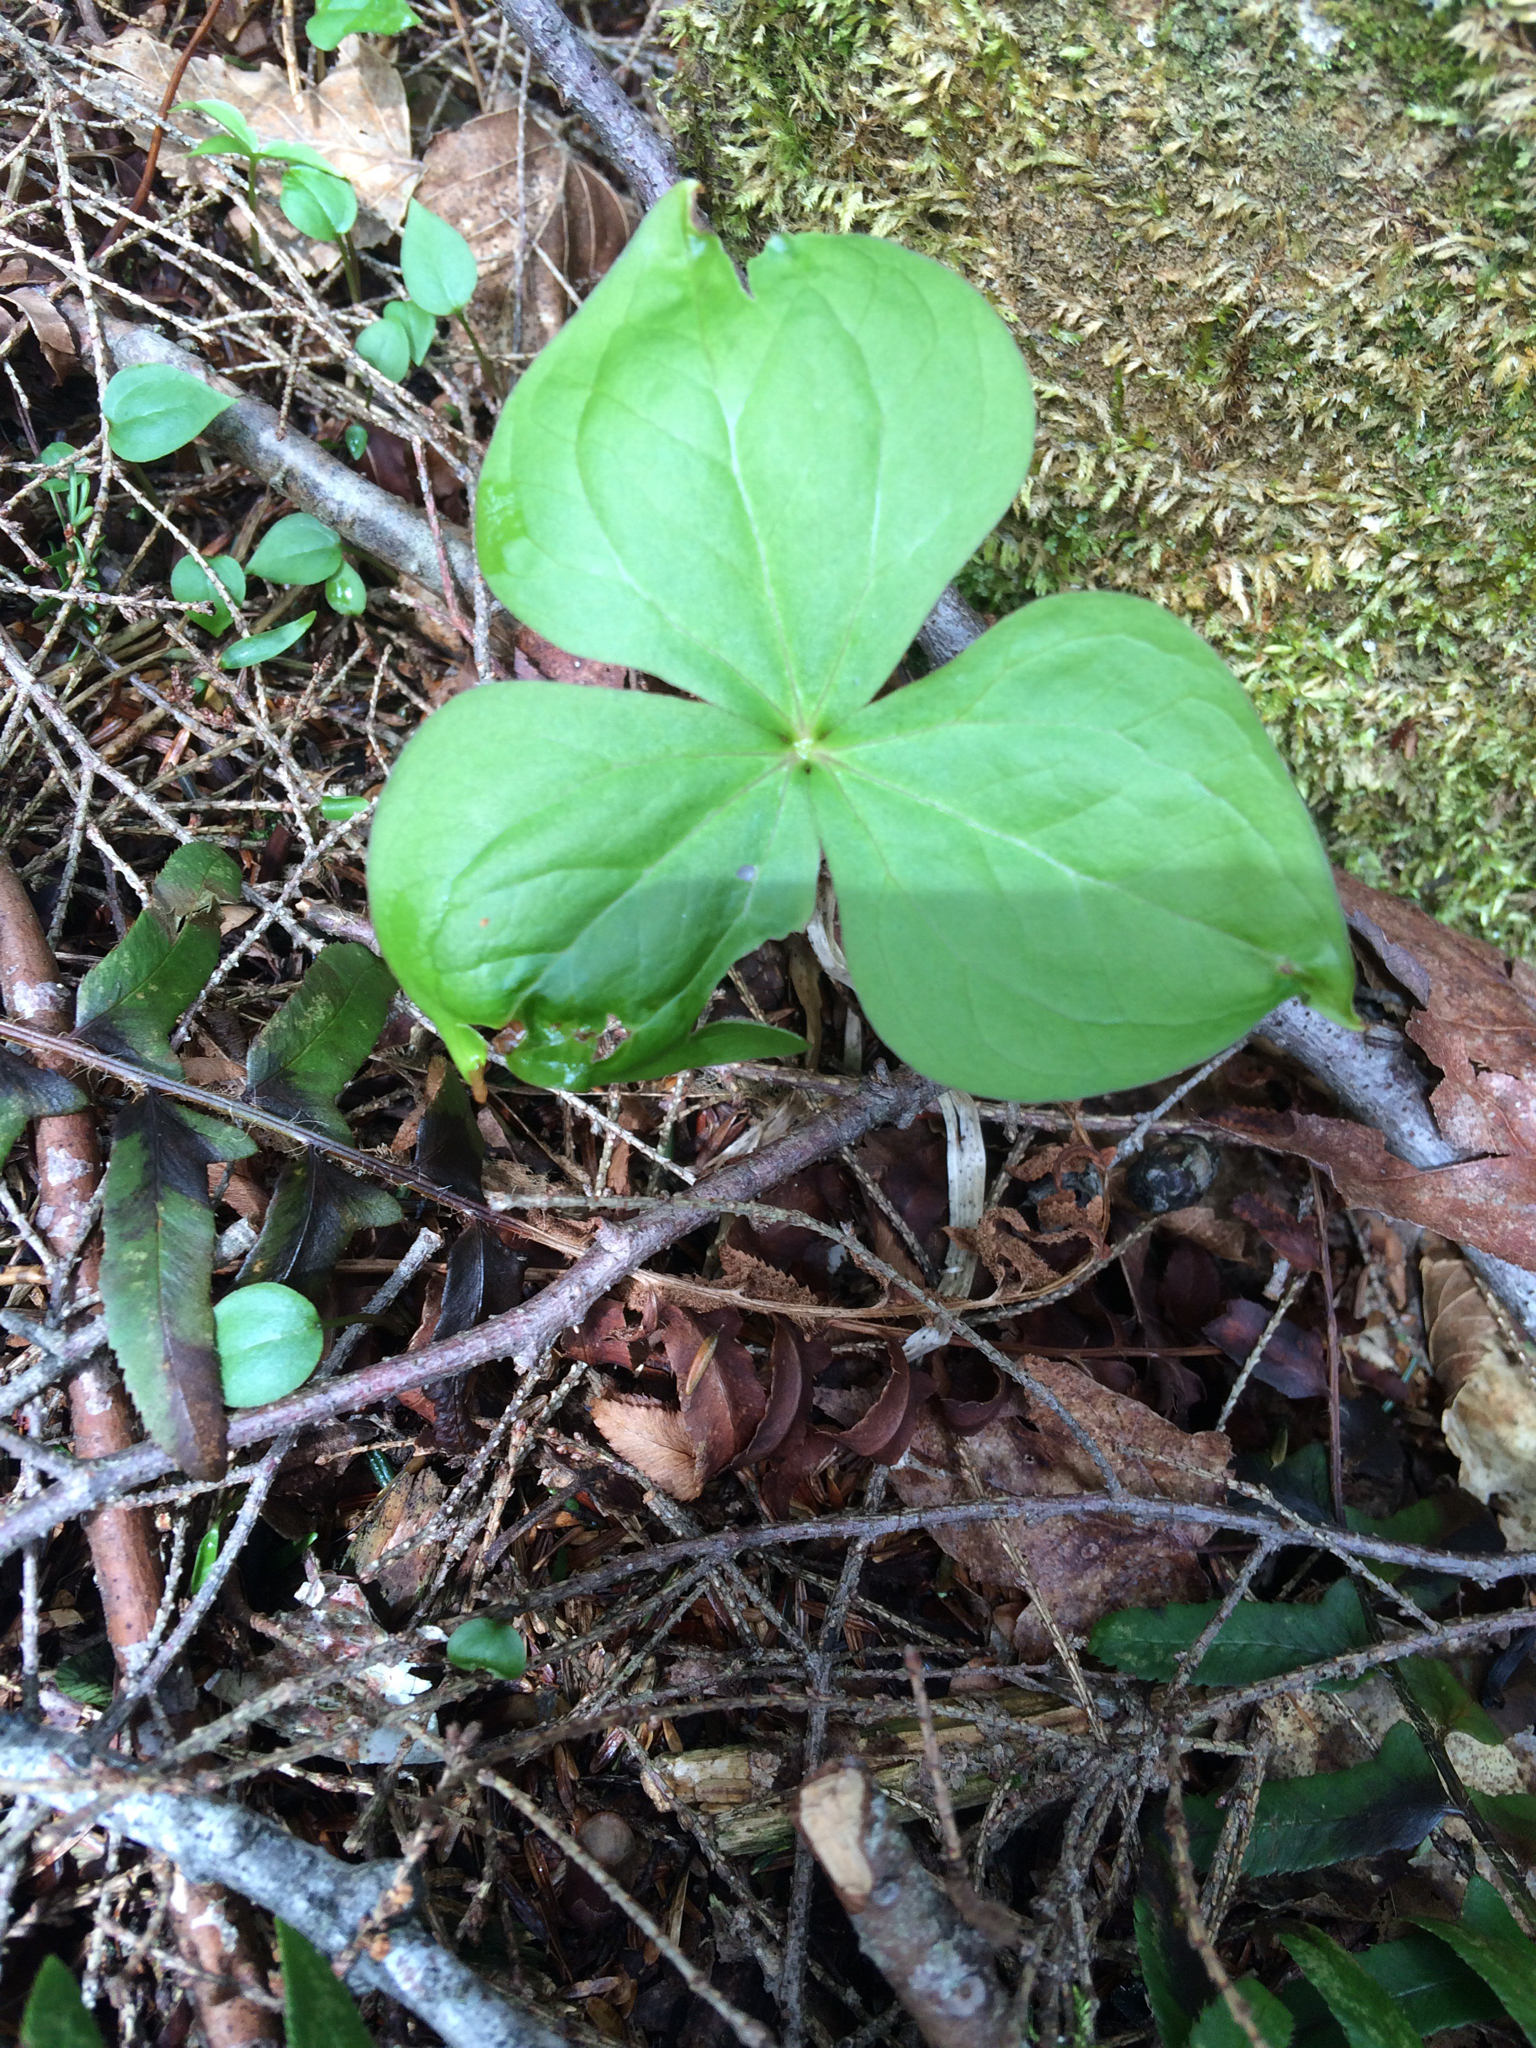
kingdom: Plantae
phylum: Tracheophyta
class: Liliopsida
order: Liliales
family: Melanthiaceae
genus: Trillium
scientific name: Trillium erectum
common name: Purple trillium
